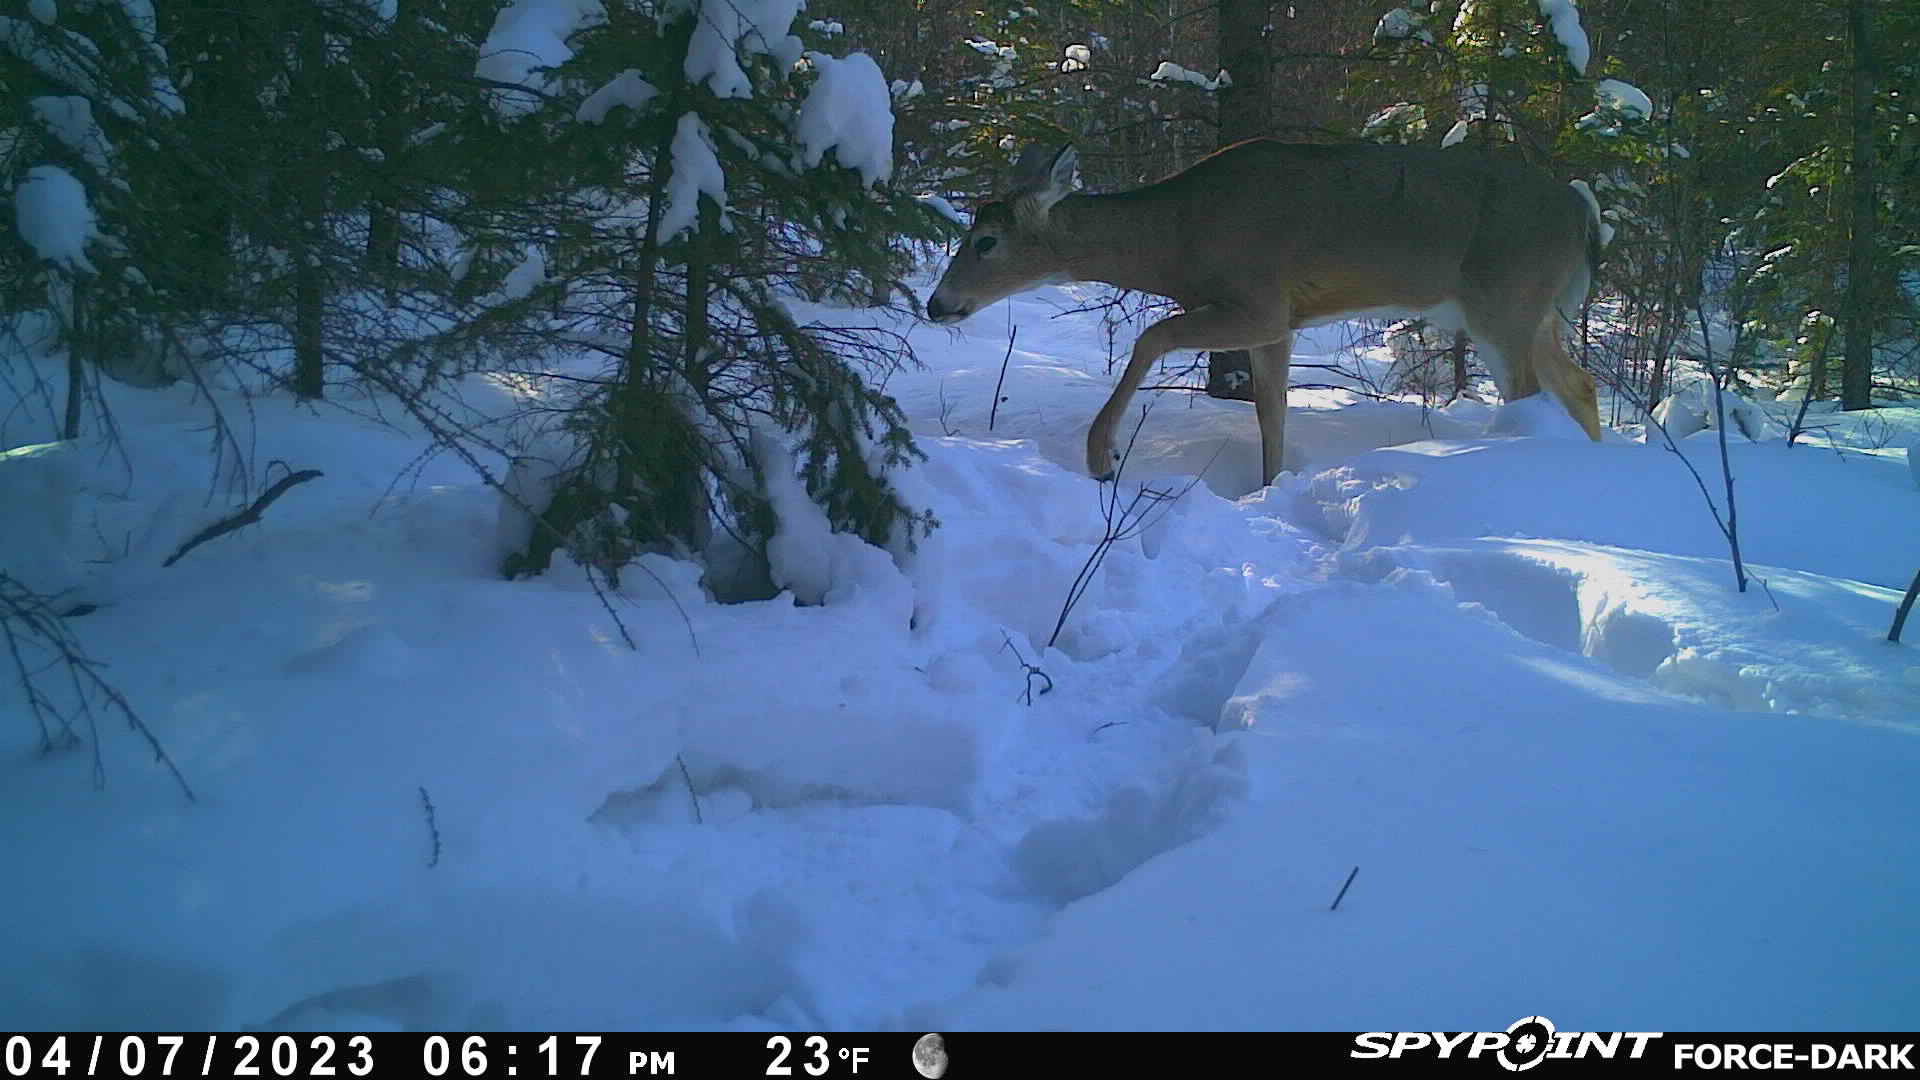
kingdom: Animalia
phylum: Chordata
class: Mammalia
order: Artiodactyla
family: Cervidae
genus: Odocoileus
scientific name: Odocoileus virginianus
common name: White-tailed deer
